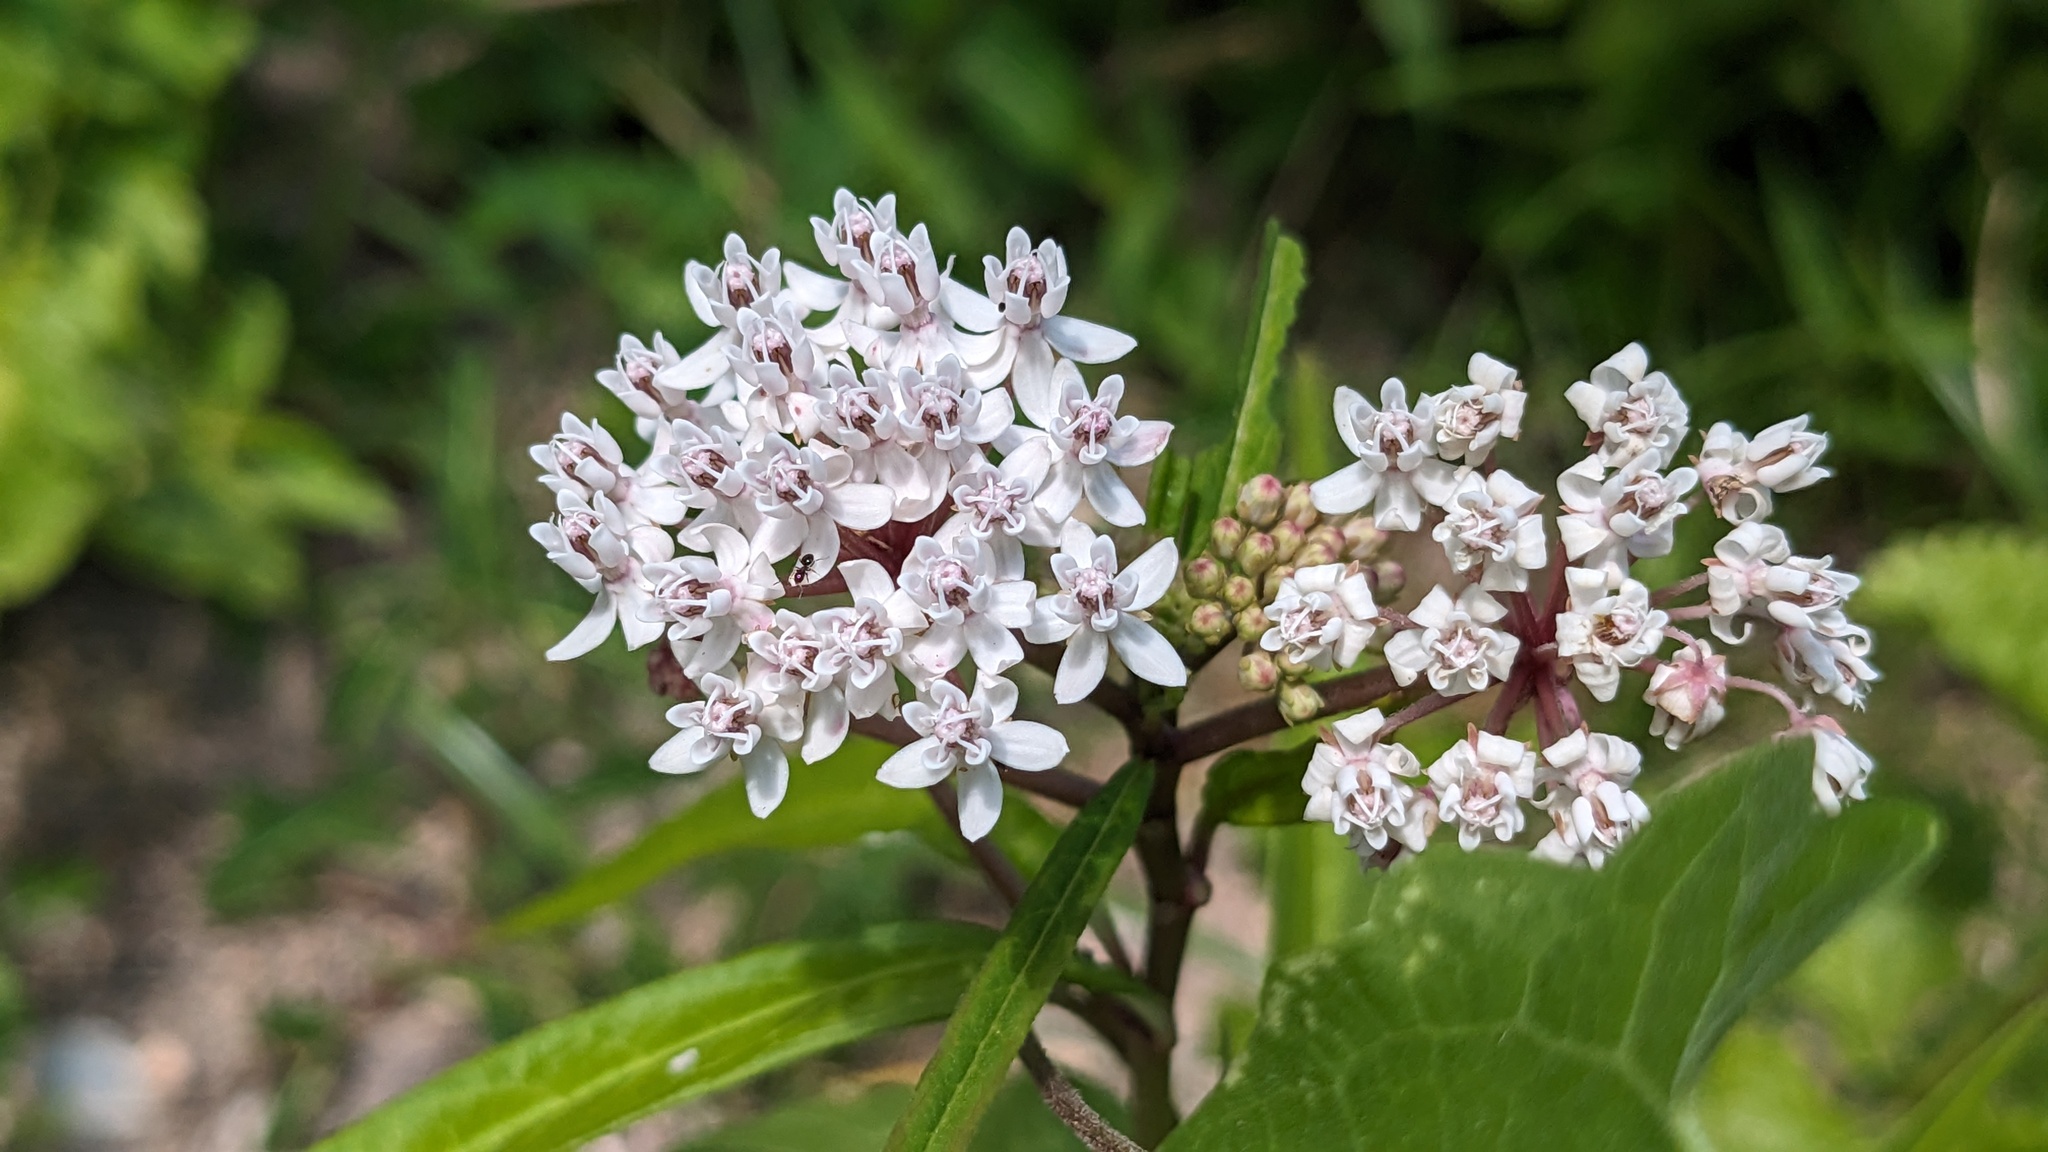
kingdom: Plantae
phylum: Tracheophyta
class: Magnoliopsida
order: Gentianales
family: Apocynaceae
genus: Asclepias
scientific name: Asclepias perennis
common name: Smooth-seed milkweed
